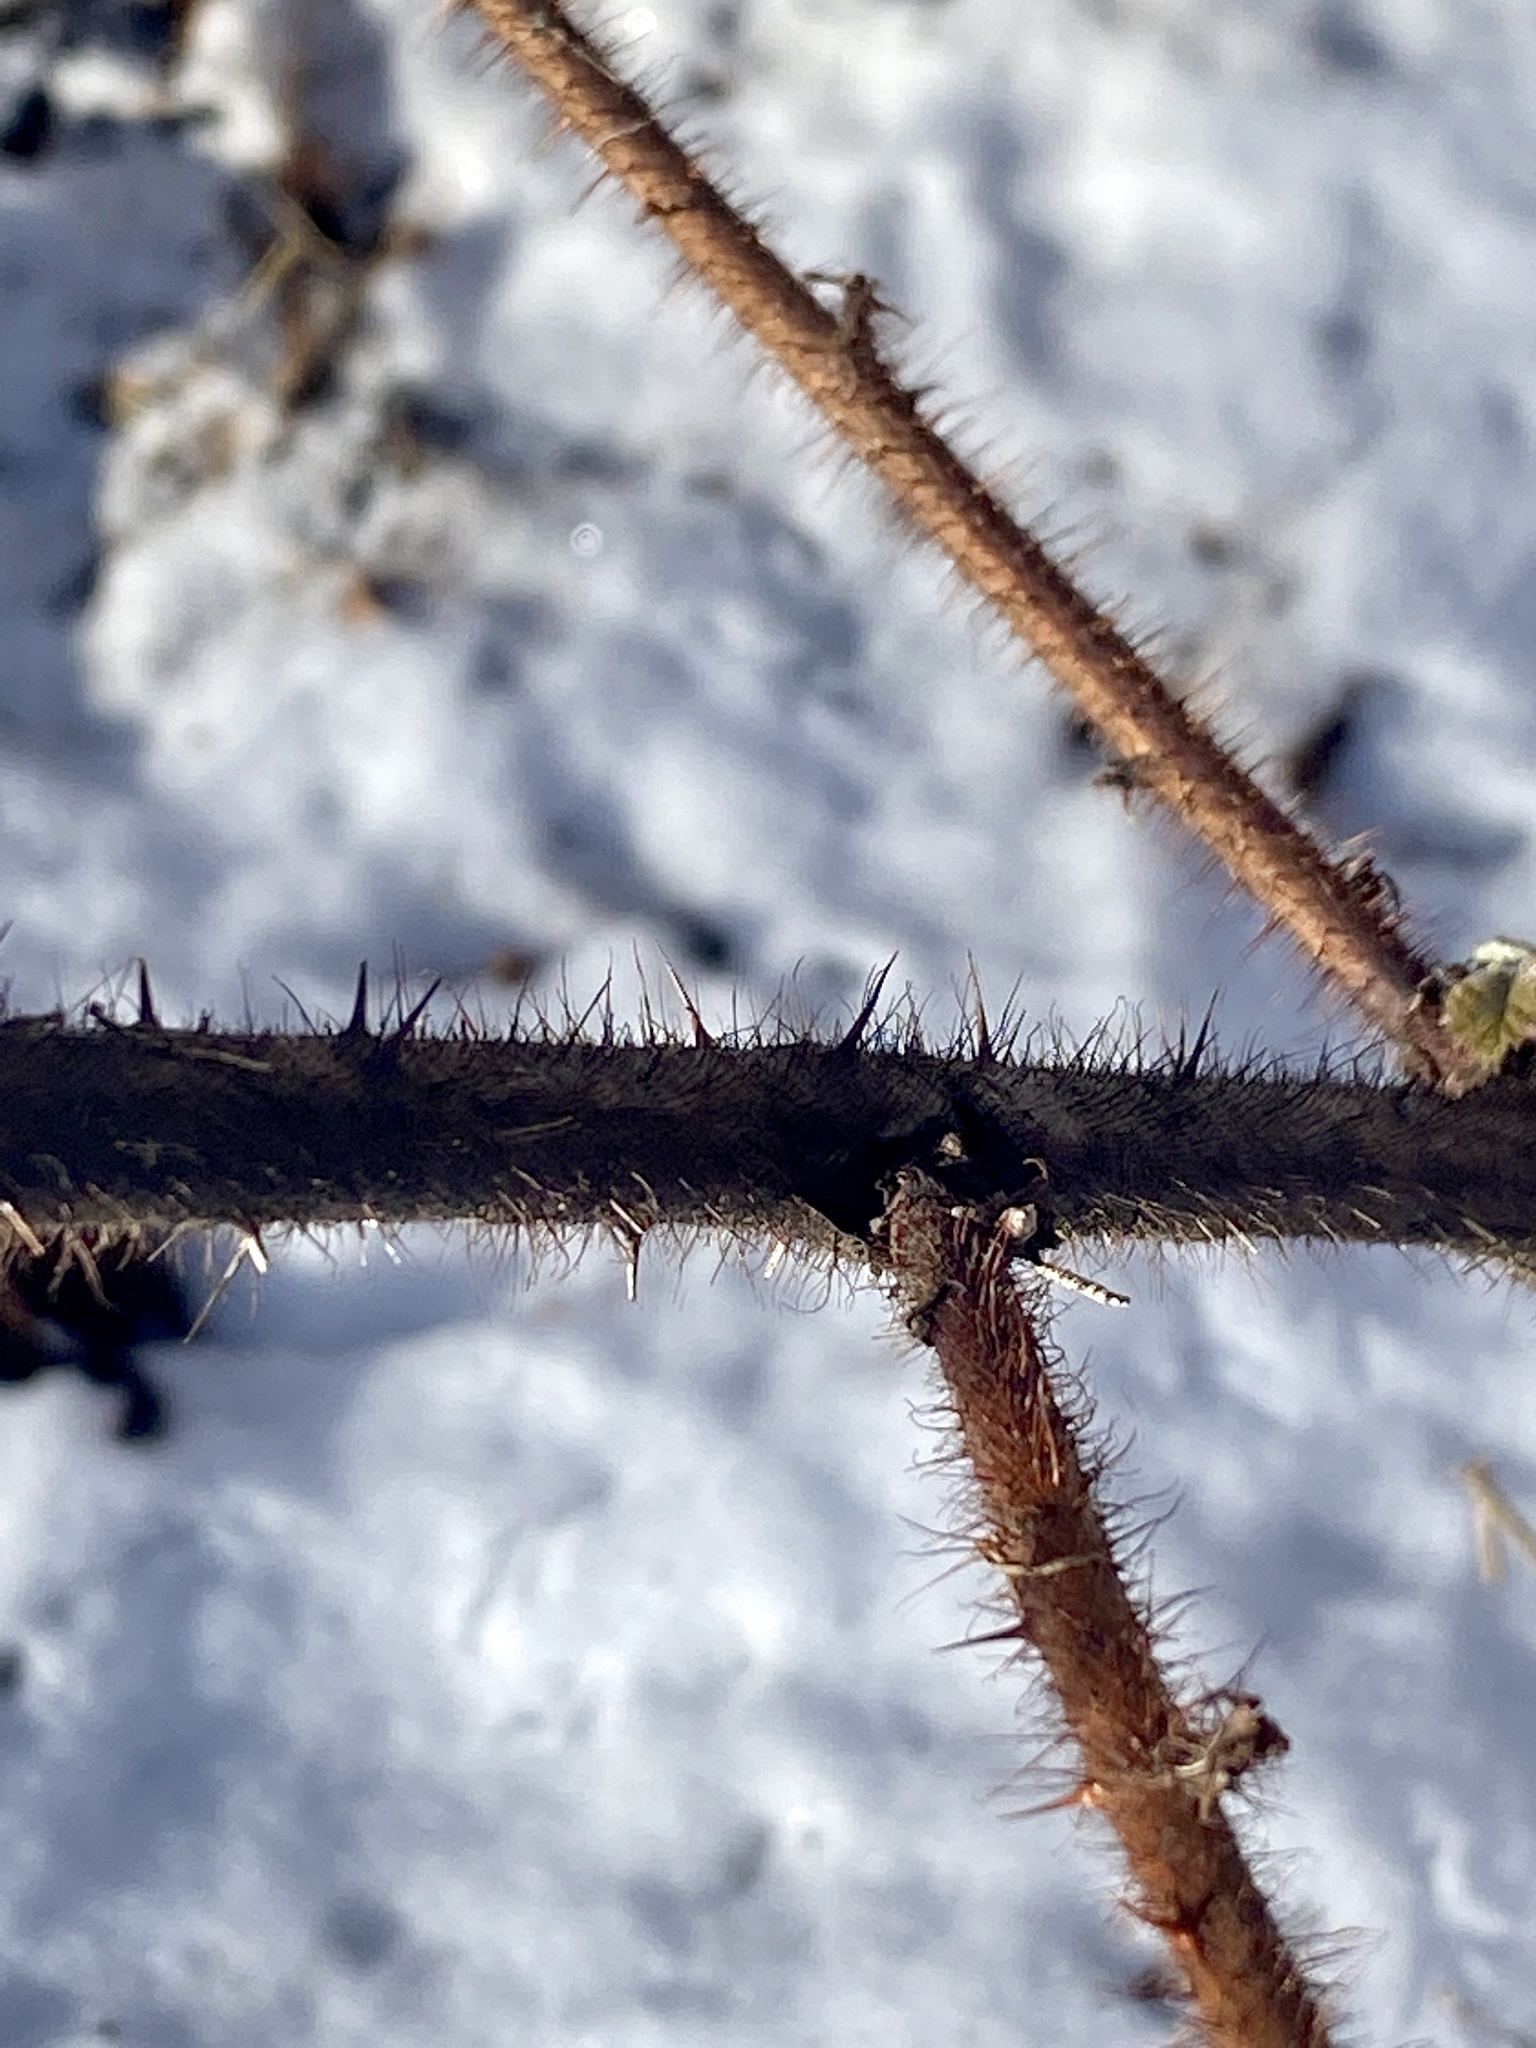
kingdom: Plantae
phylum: Tracheophyta
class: Magnoliopsida
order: Rosales
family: Rosaceae
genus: Rubus
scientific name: Rubus phoenicolasius
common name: Japanese wineberry
